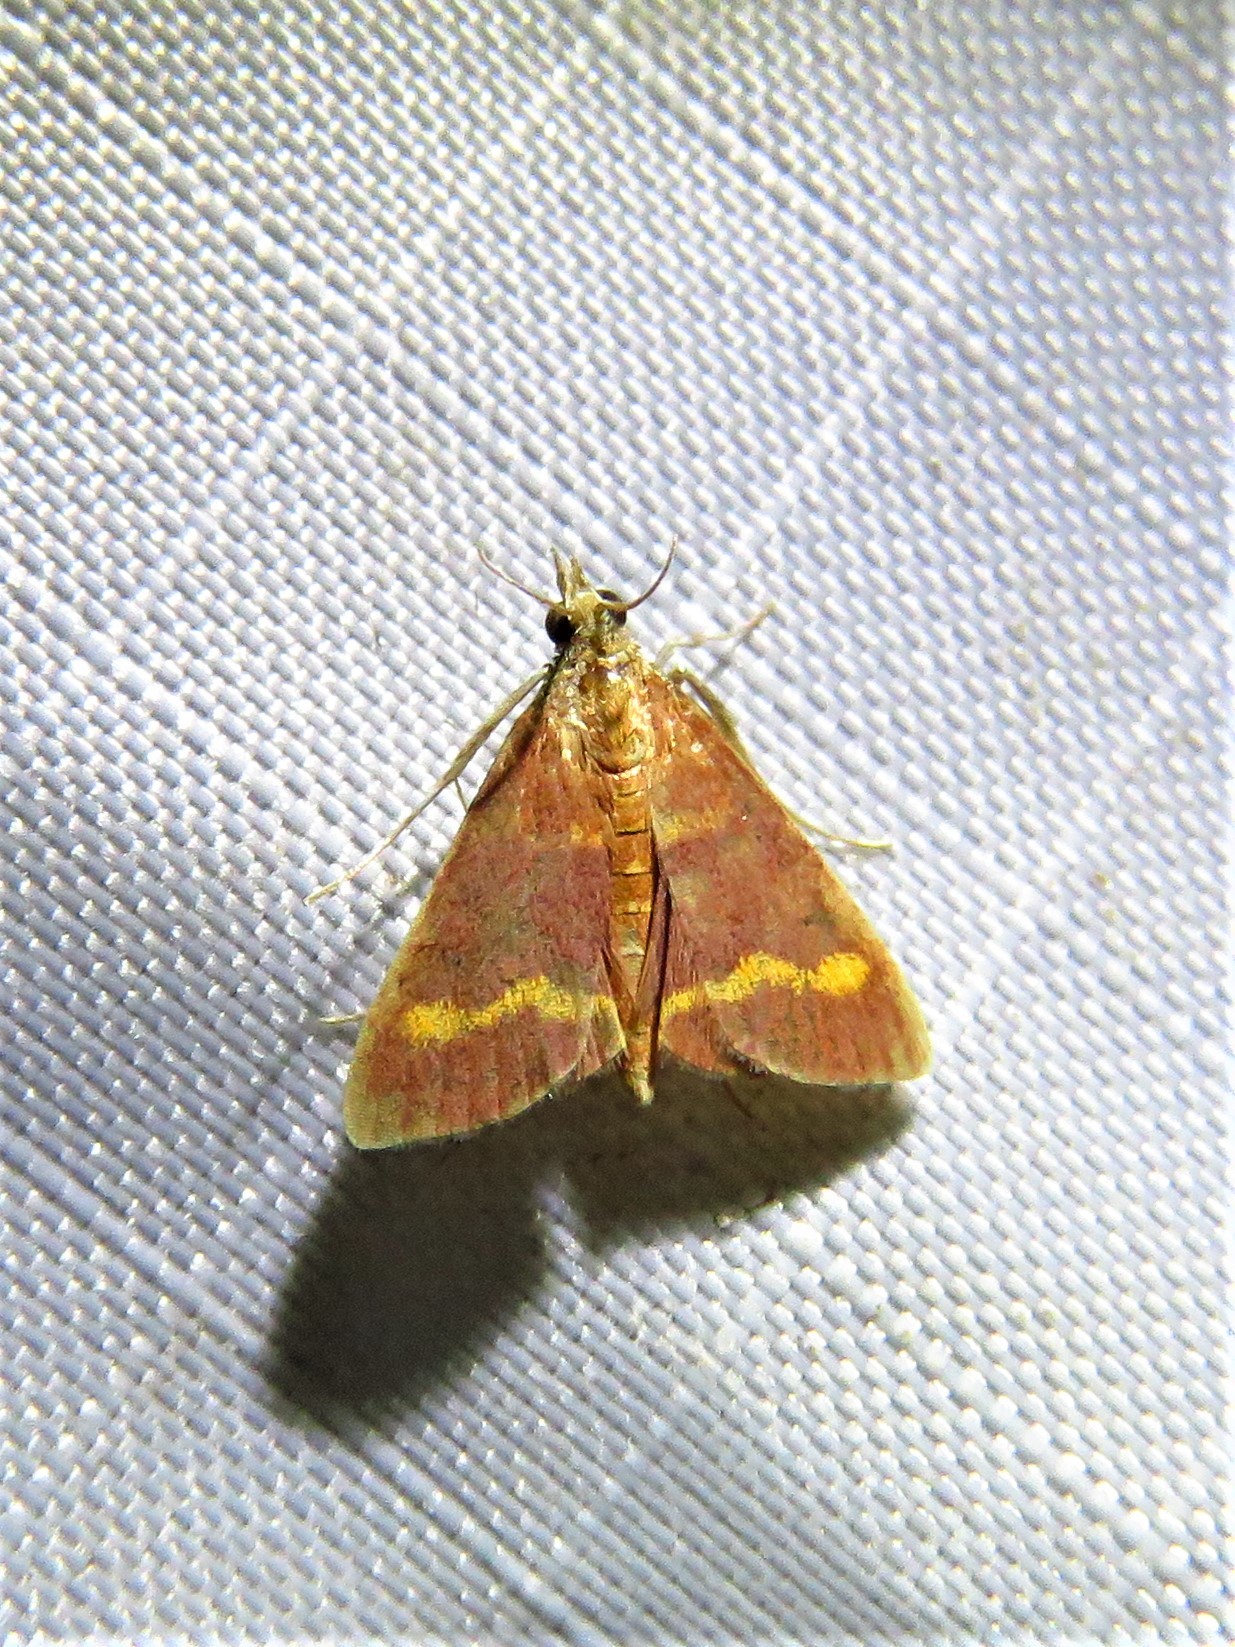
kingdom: Animalia
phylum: Arthropoda
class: Insecta
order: Lepidoptera
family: Crambidae
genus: Pyrausta
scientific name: Pyrausta pseuderosnealis
